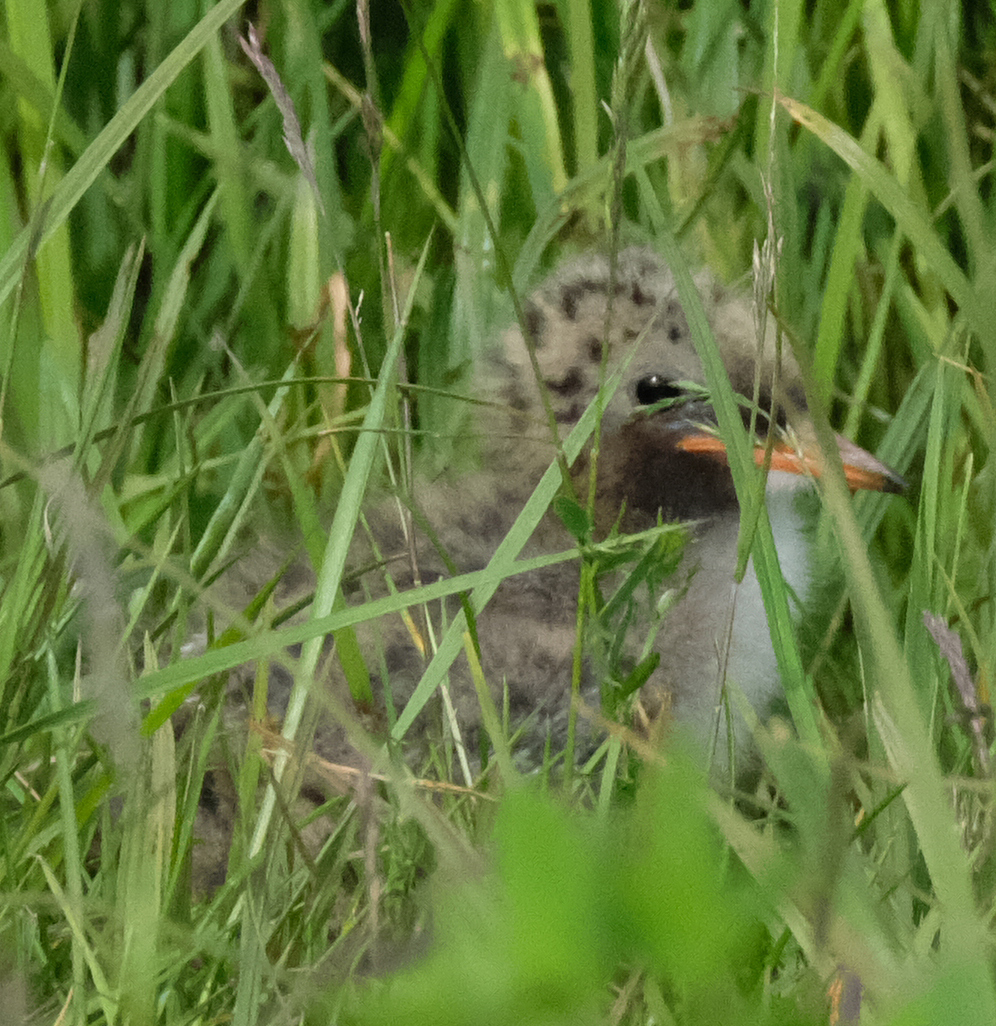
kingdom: Animalia
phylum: Chordata
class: Aves
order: Charadriiformes
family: Laridae
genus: Sterna
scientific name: Sterna paradisaea
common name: Arctic tern
